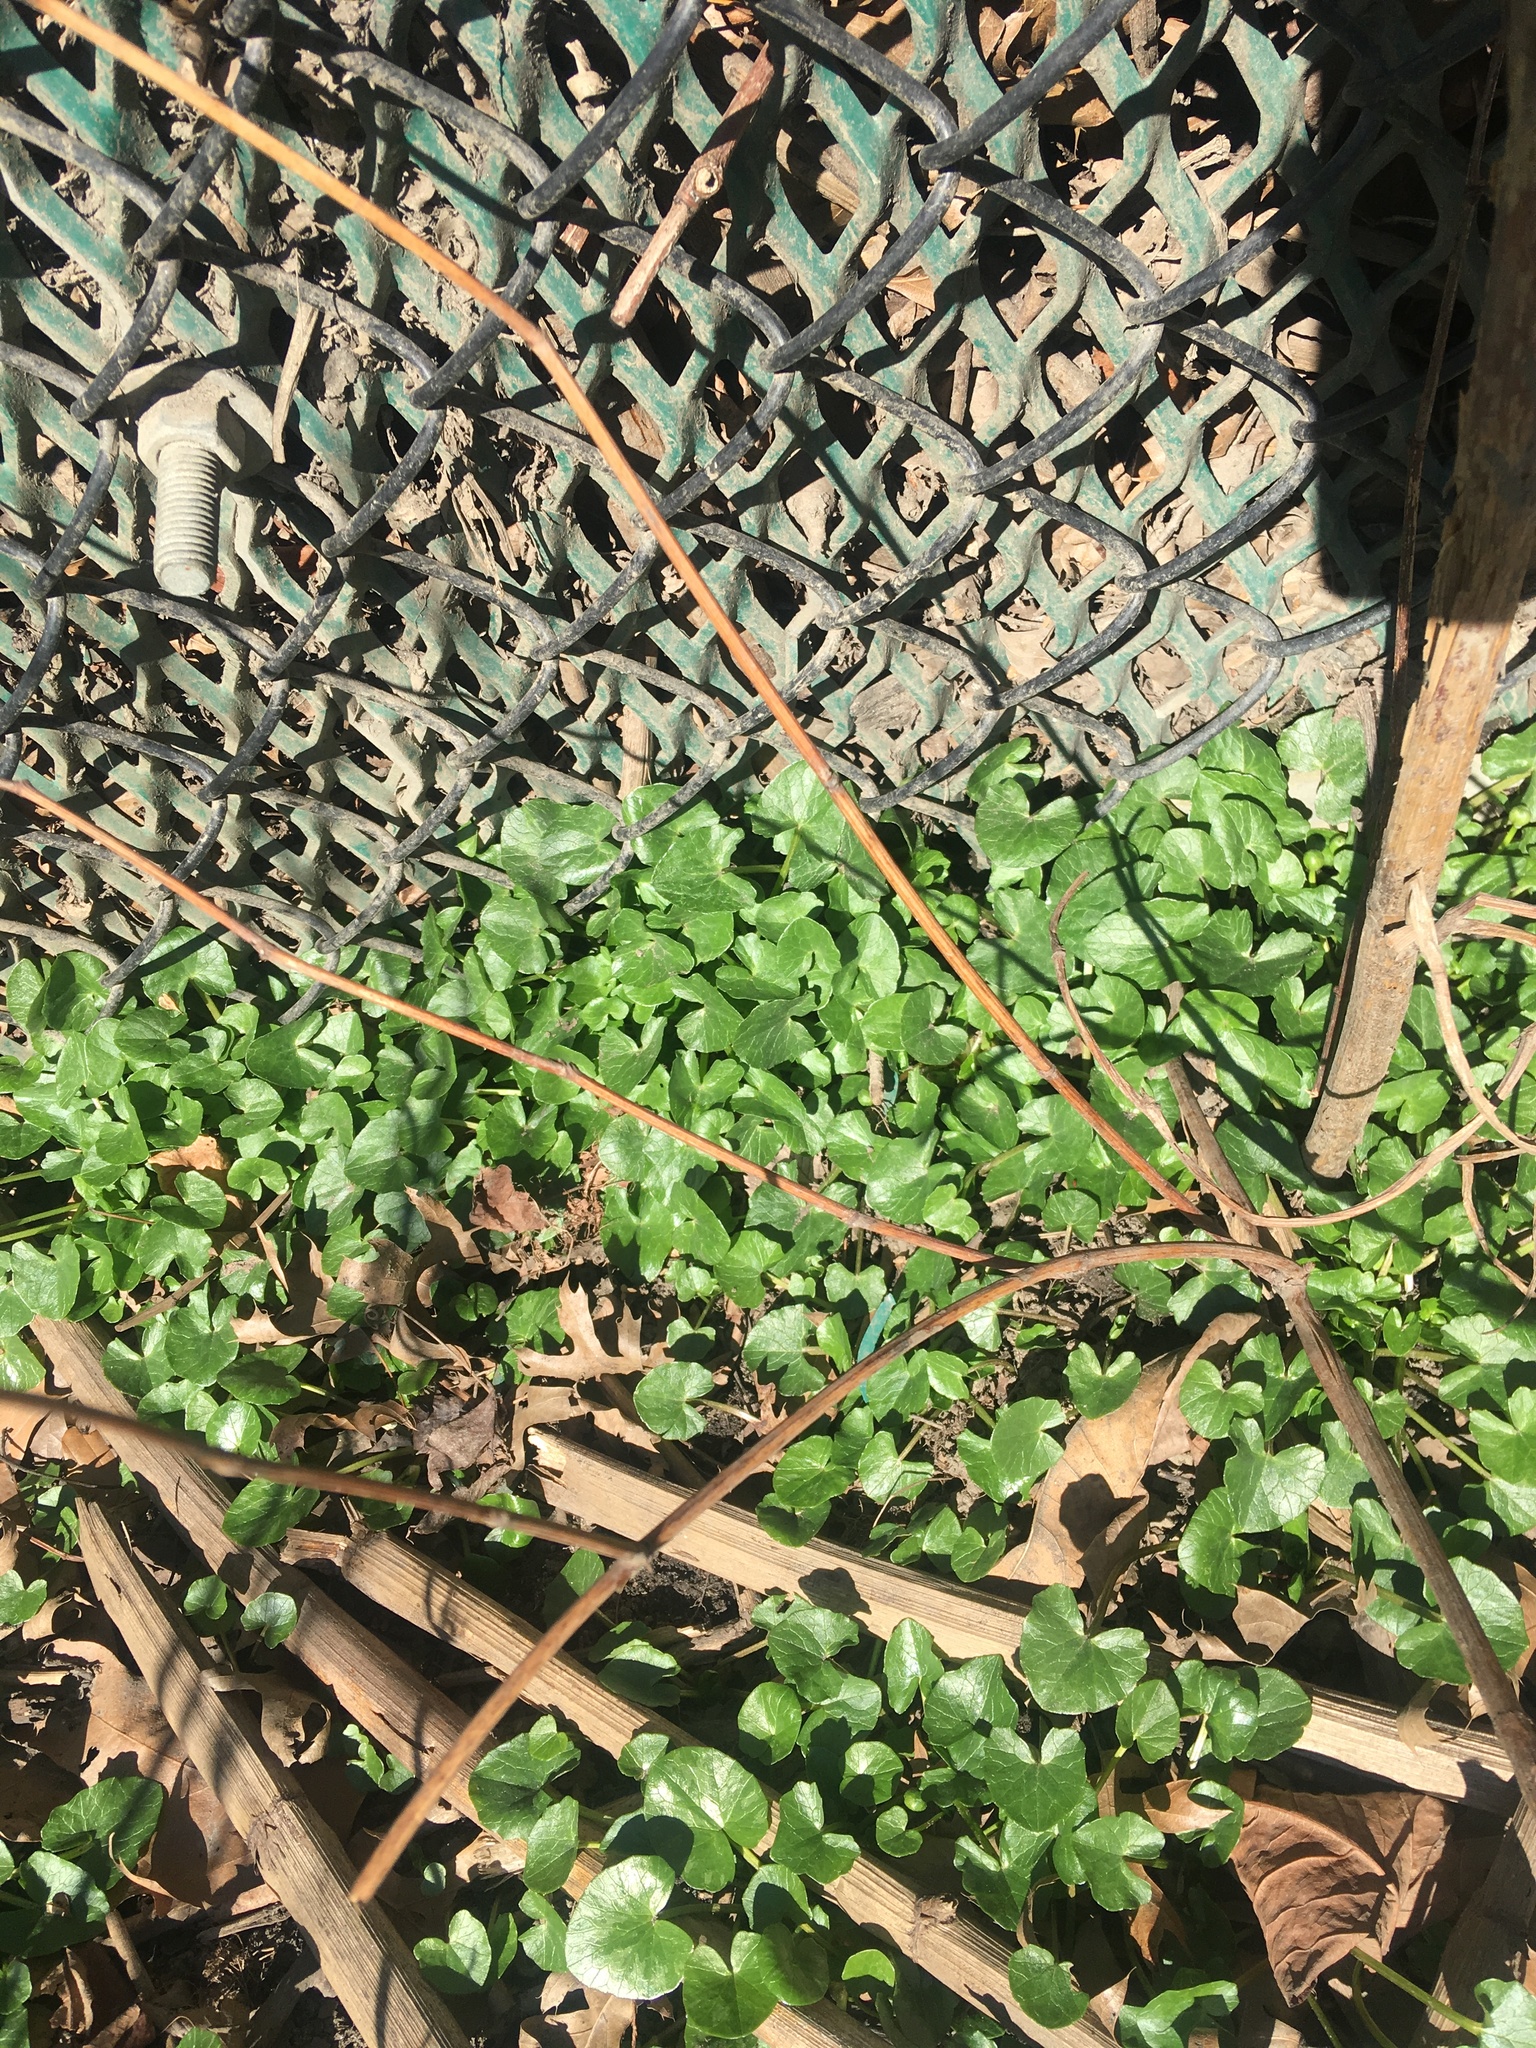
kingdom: Plantae
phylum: Tracheophyta
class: Magnoliopsida
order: Ranunculales
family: Ranunculaceae
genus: Ficaria
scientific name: Ficaria verna
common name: Lesser celandine
